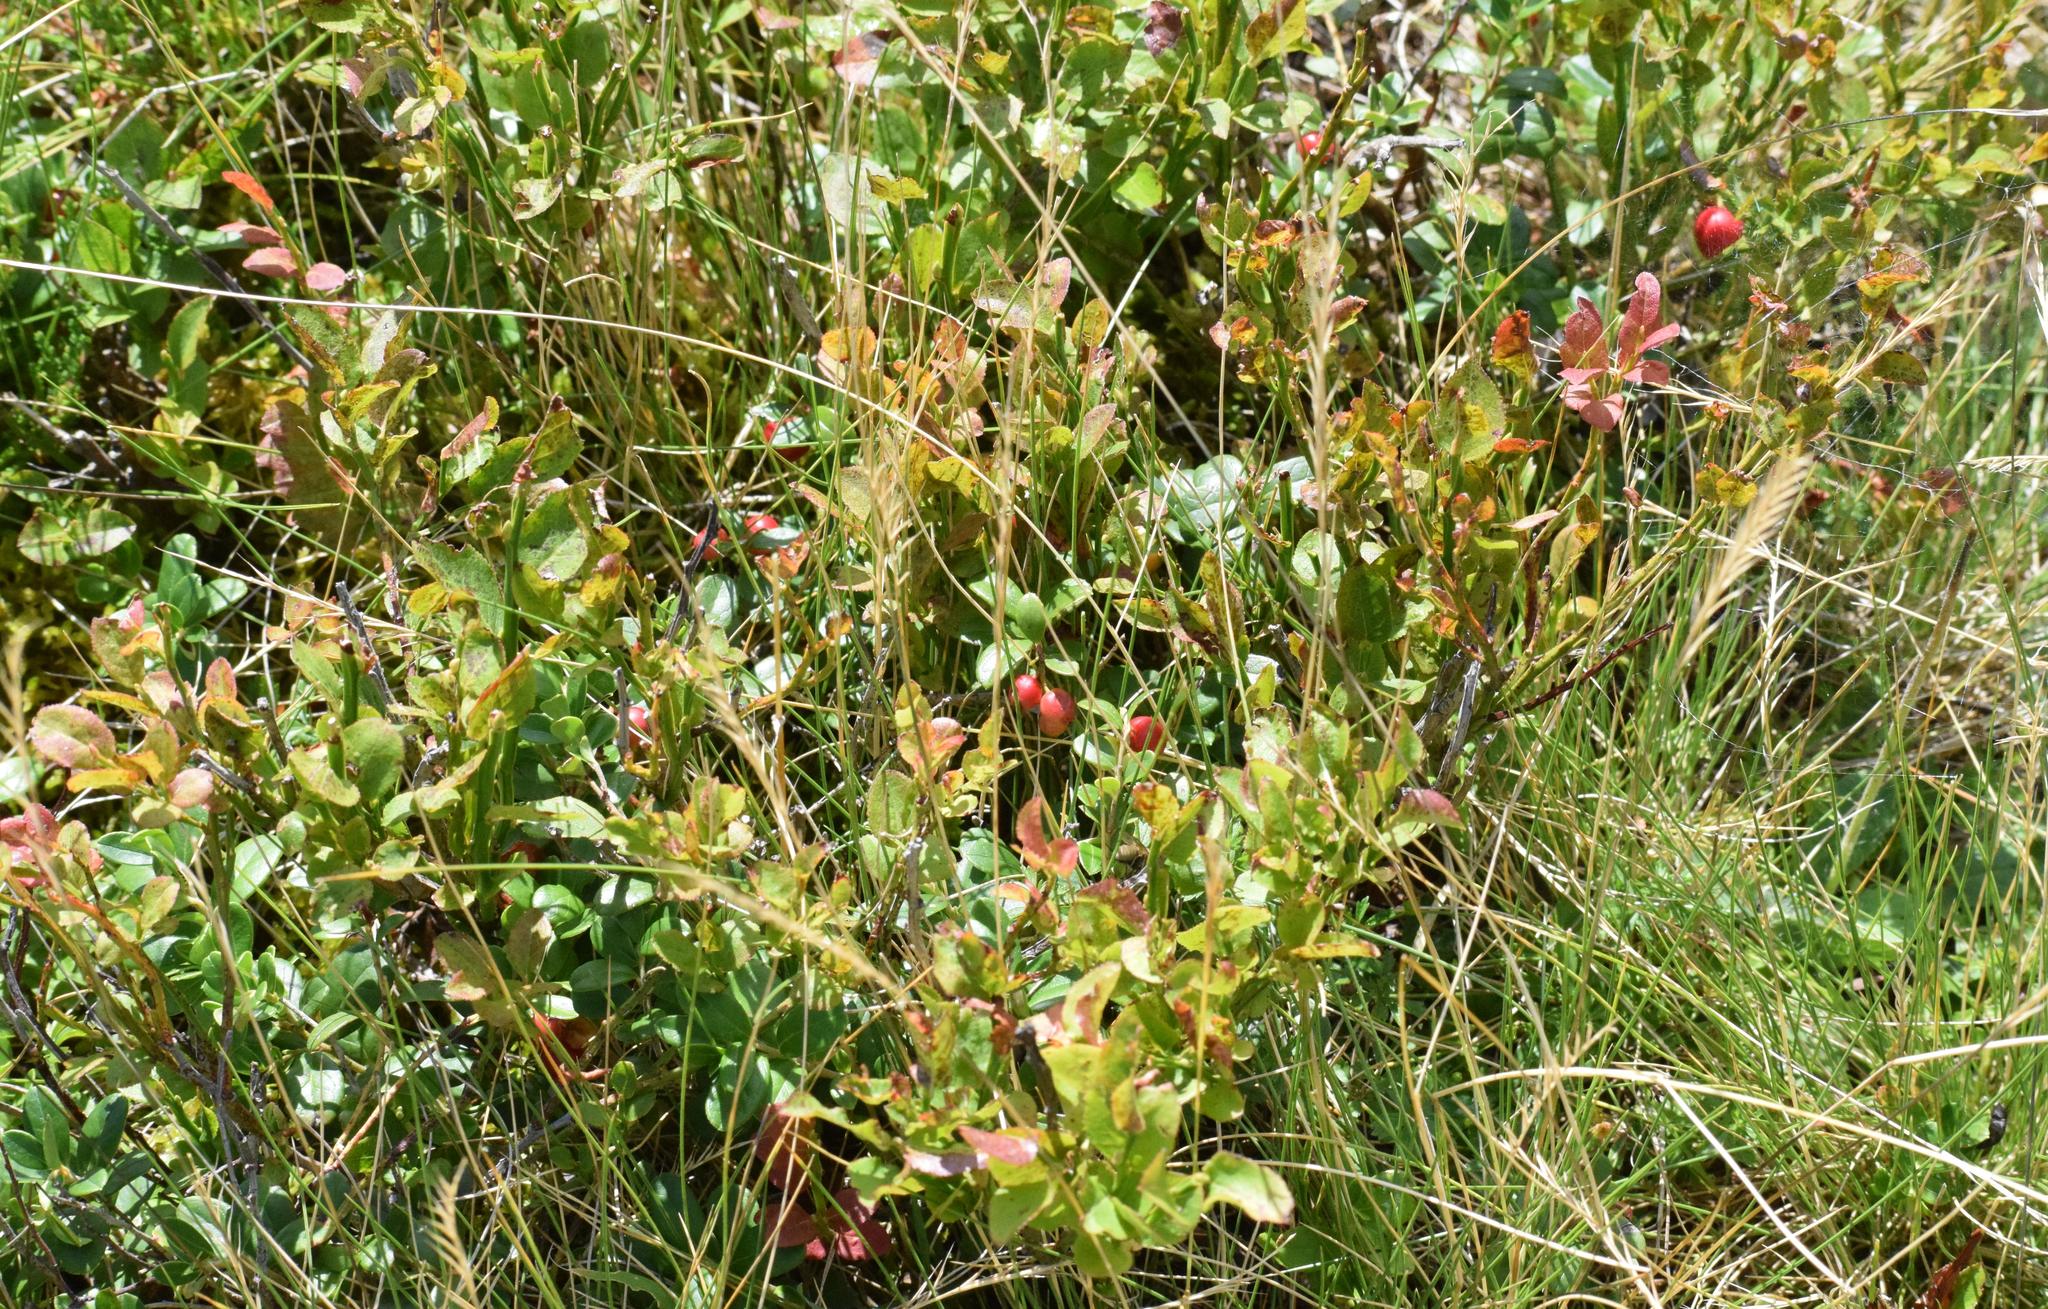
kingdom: Plantae
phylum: Tracheophyta
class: Magnoliopsida
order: Ericales
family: Ericaceae
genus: Vaccinium
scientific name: Vaccinium vitis-idaea
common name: Cowberry
